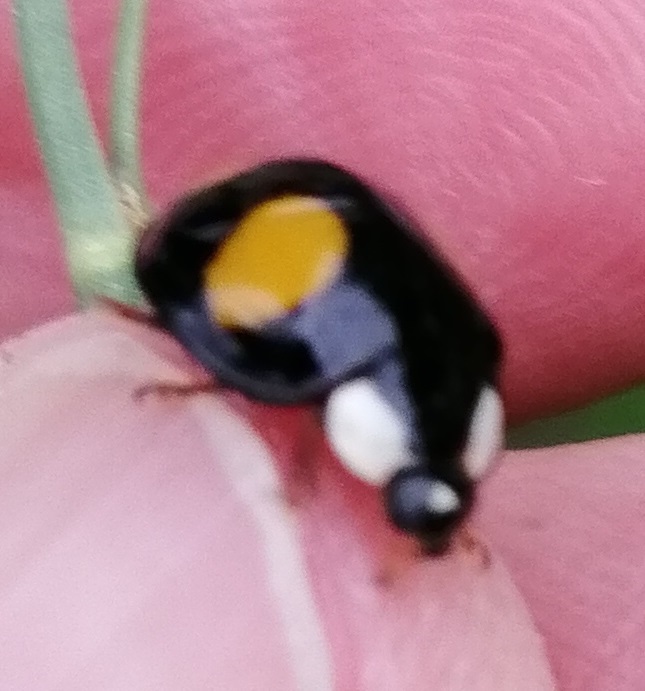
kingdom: Animalia
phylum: Arthropoda
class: Insecta
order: Coleoptera
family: Coccinellidae
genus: Harmonia
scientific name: Harmonia axyridis
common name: Harlequin ladybird
